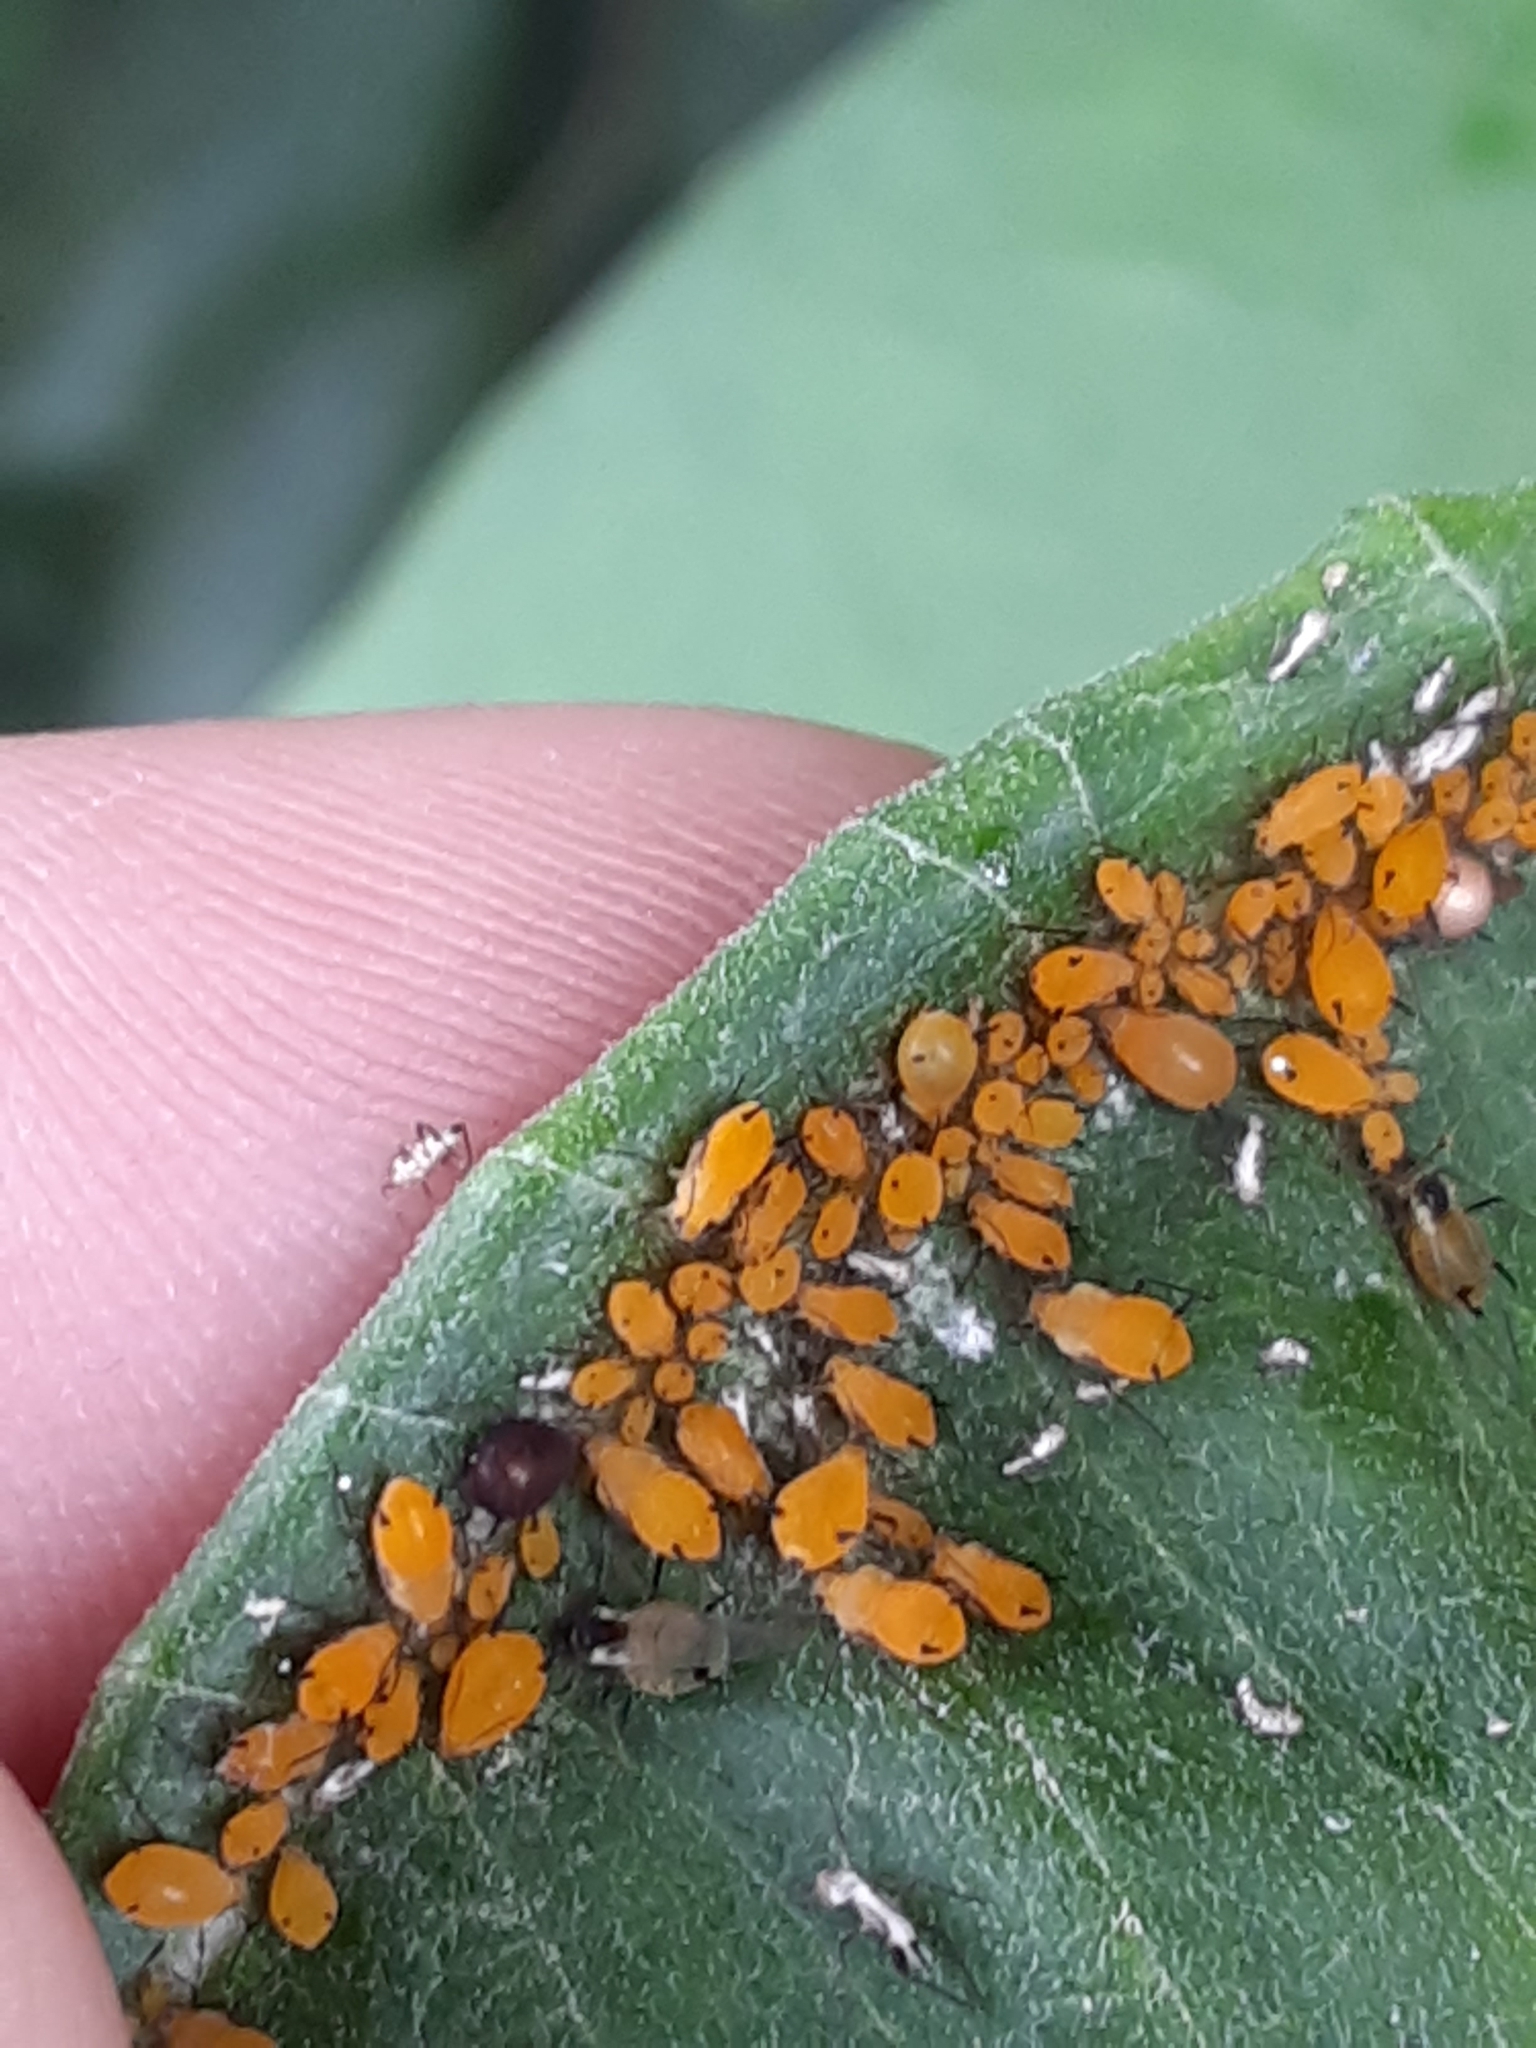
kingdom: Animalia
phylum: Arthropoda
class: Insecta
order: Hemiptera
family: Aphididae
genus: Aphis
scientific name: Aphis nerii
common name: Oleander aphid
